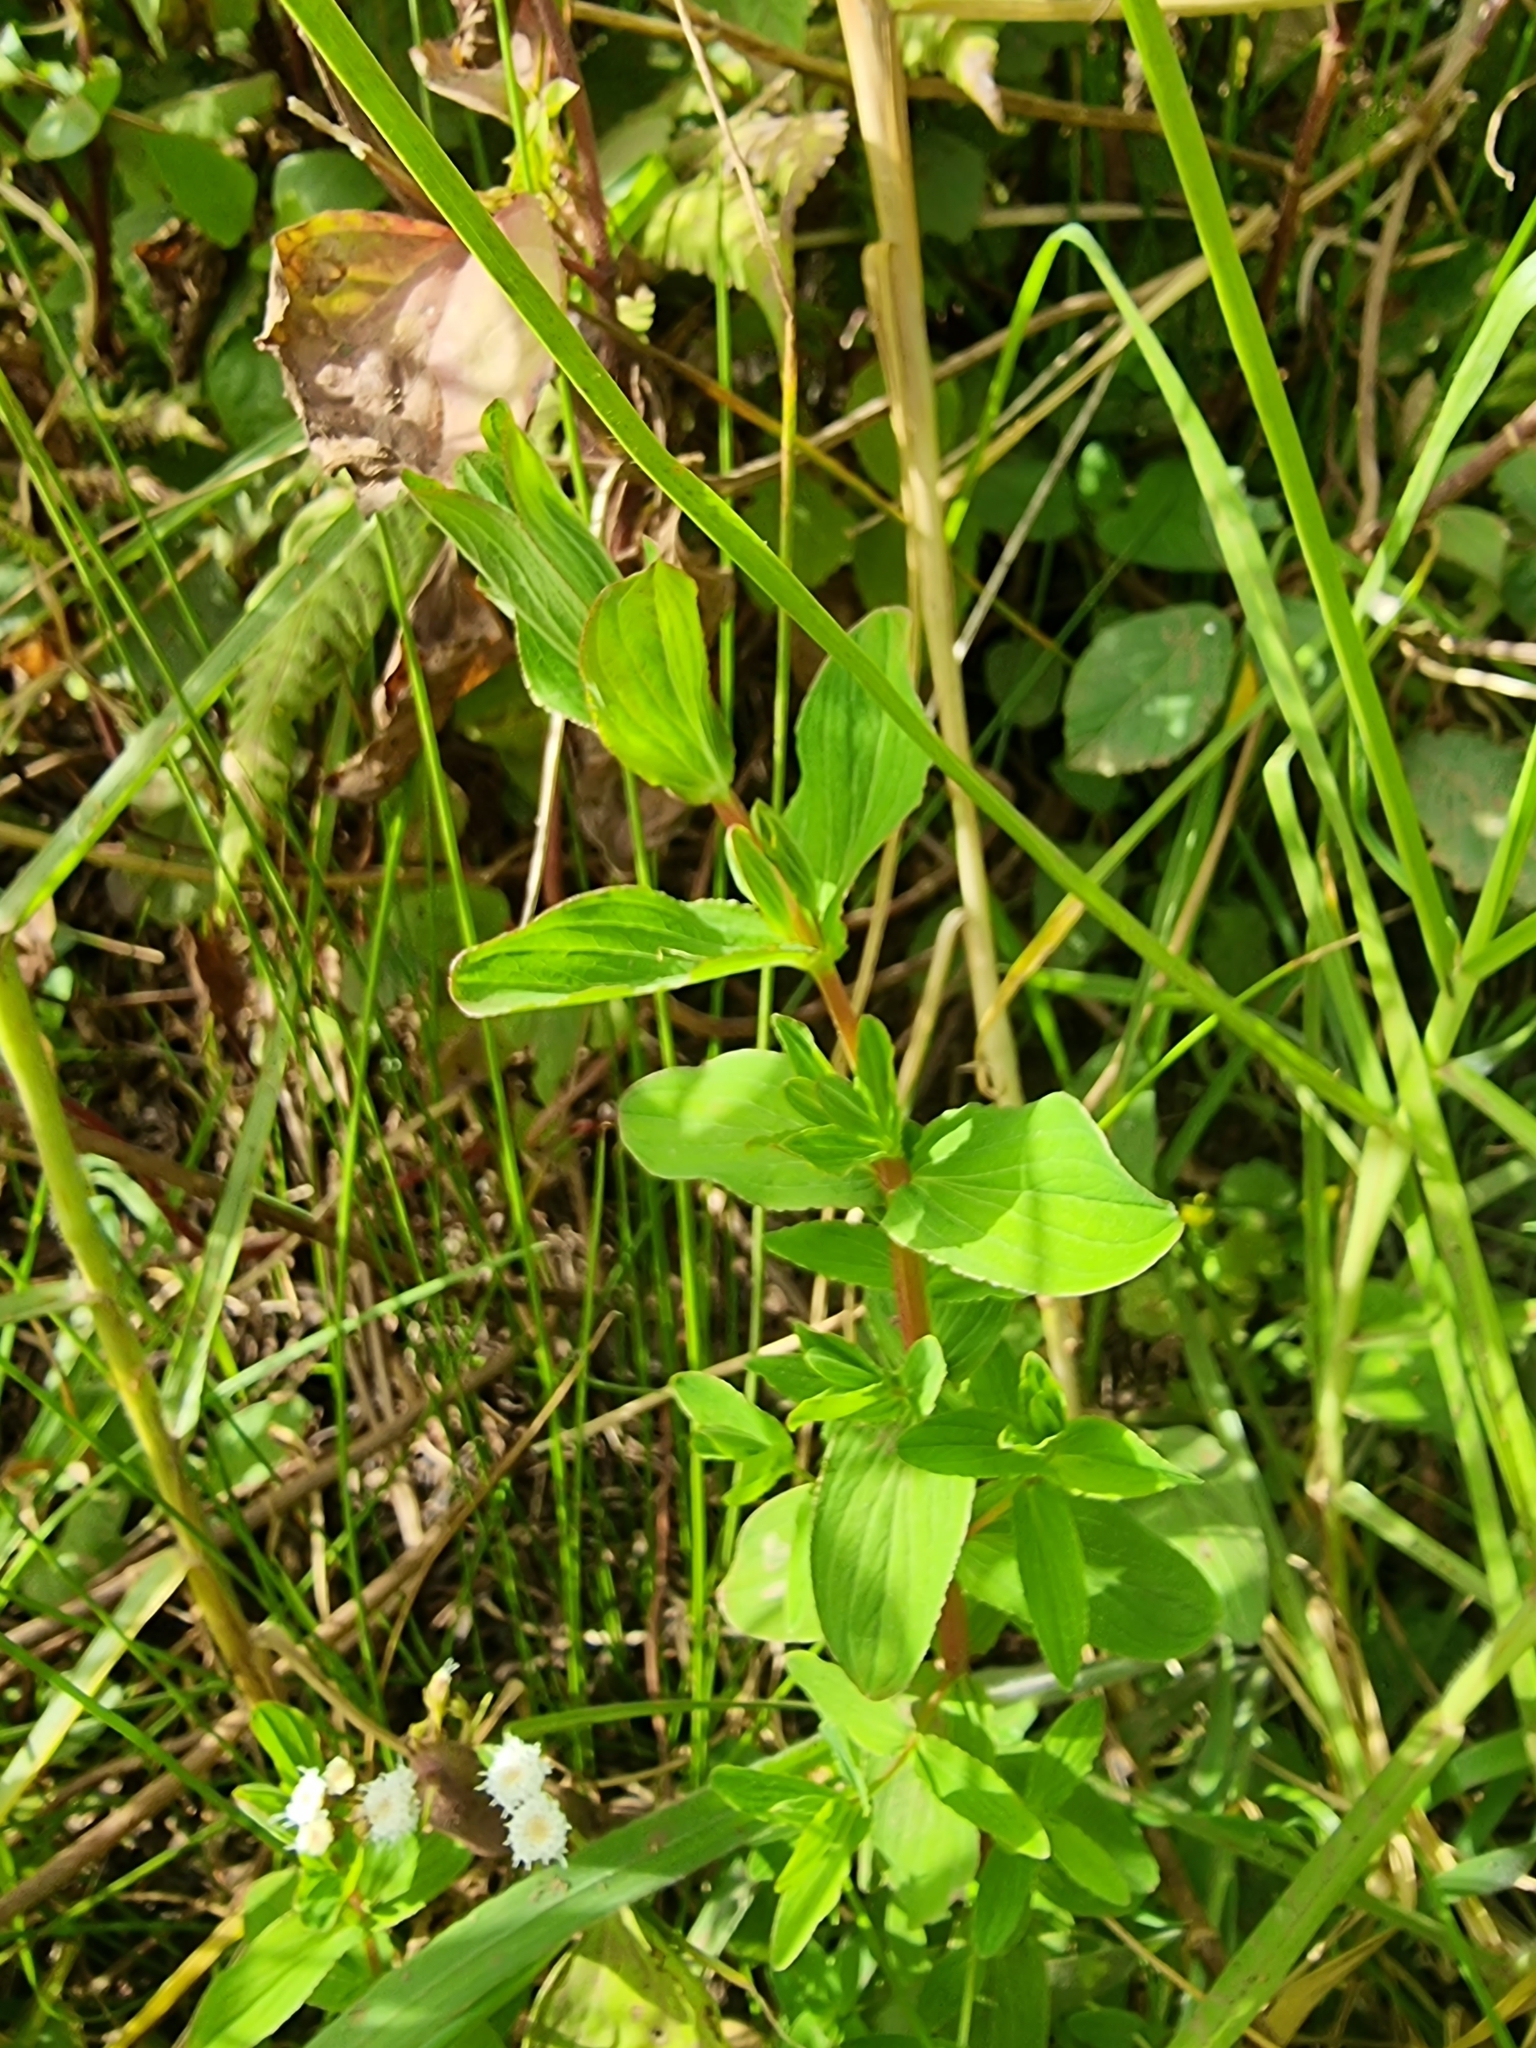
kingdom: Plantae
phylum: Tracheophyta
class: Magnoliopsida
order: Malpighiales
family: Hypericaceae
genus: Hypericum
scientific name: Hypericum undulatum
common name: Wavy st. john's-wort
